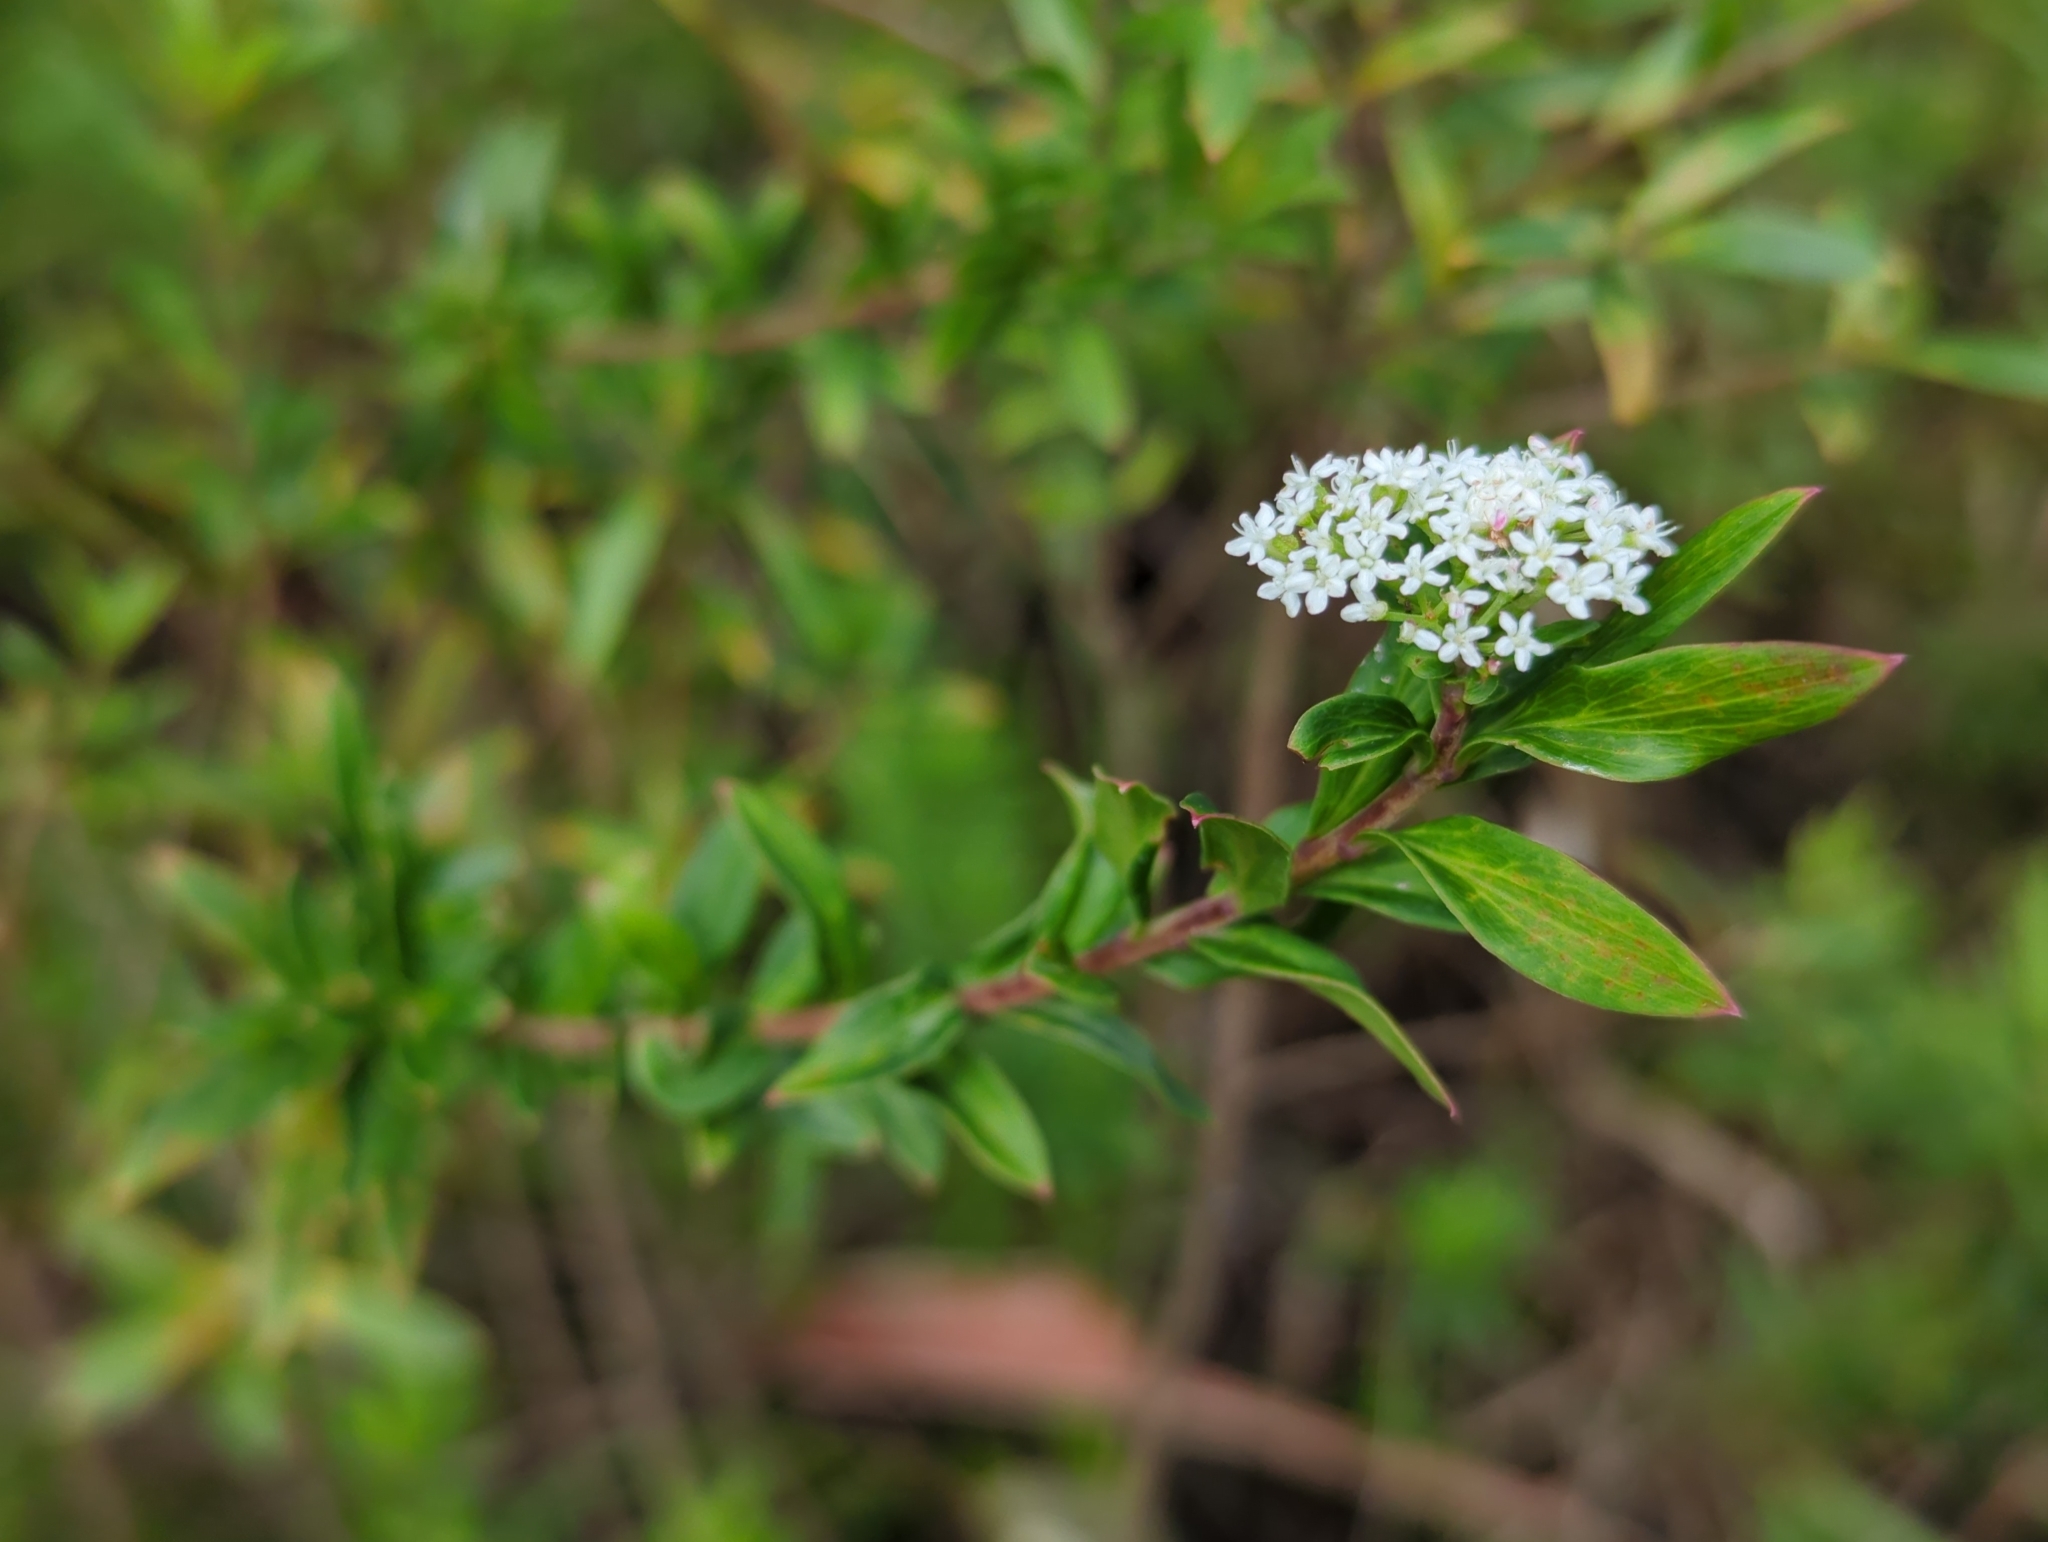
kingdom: Plantae
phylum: Tracheophyta
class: Magnoliopsida
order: Apiales
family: Apiaceae
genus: Platysace
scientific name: Platysace lanceolata
